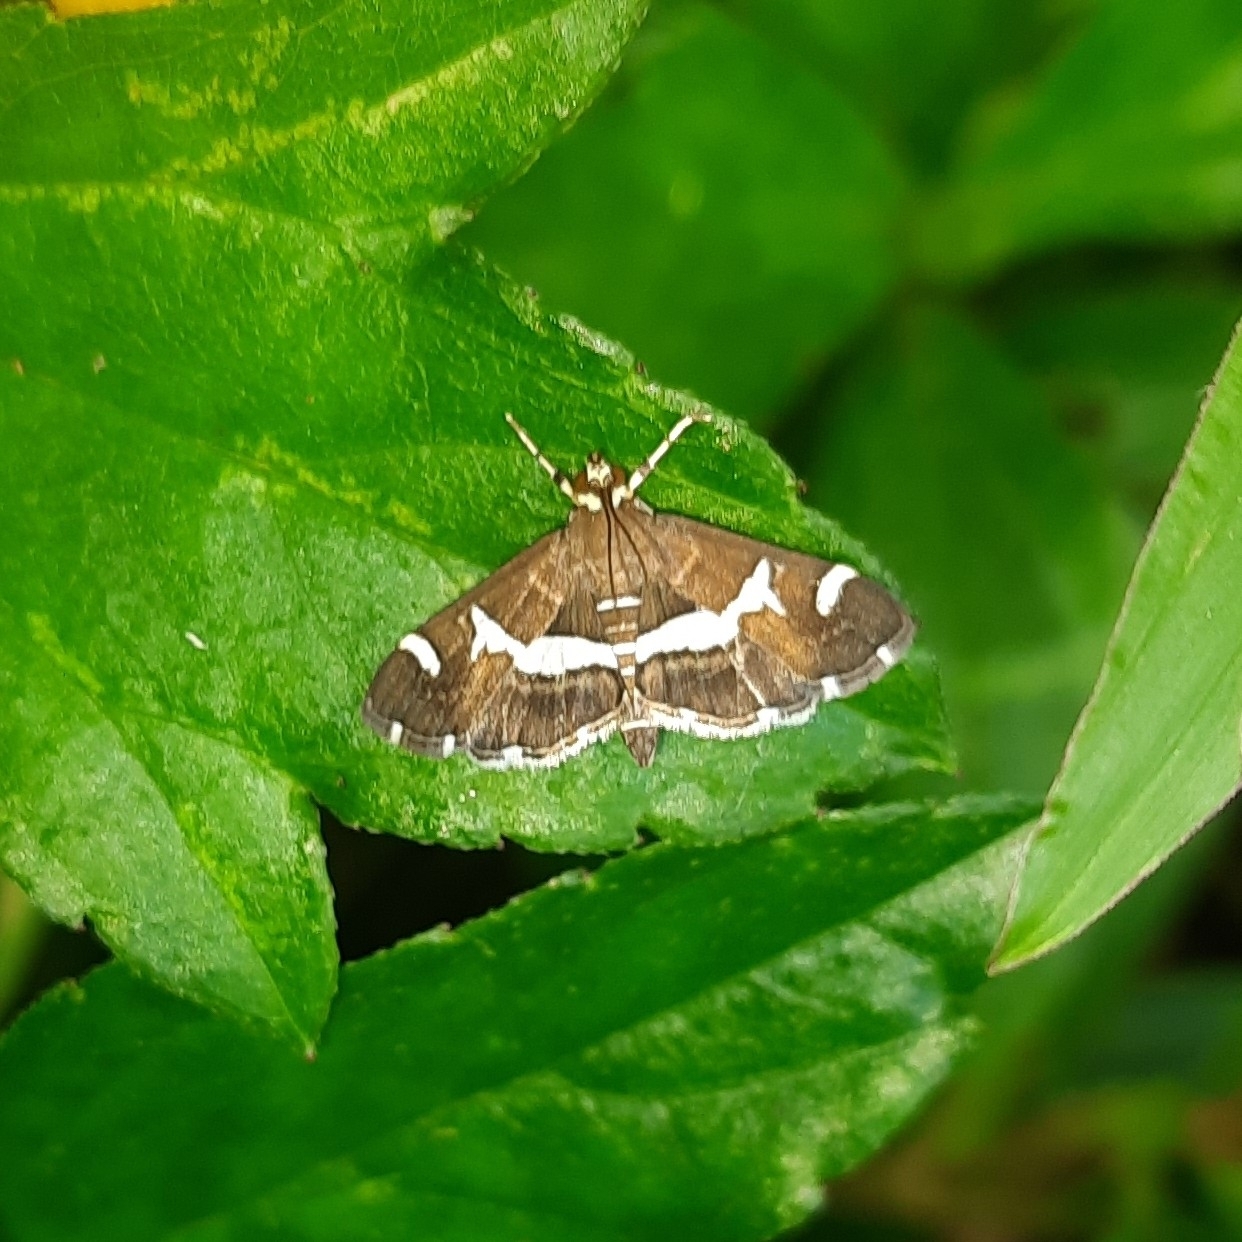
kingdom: Animalia
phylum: Arthropoda
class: Insecta
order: Lepidoptera
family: Crambidae
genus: Spoladea
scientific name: Spoladea recurvalis
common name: Beet webworm moth
